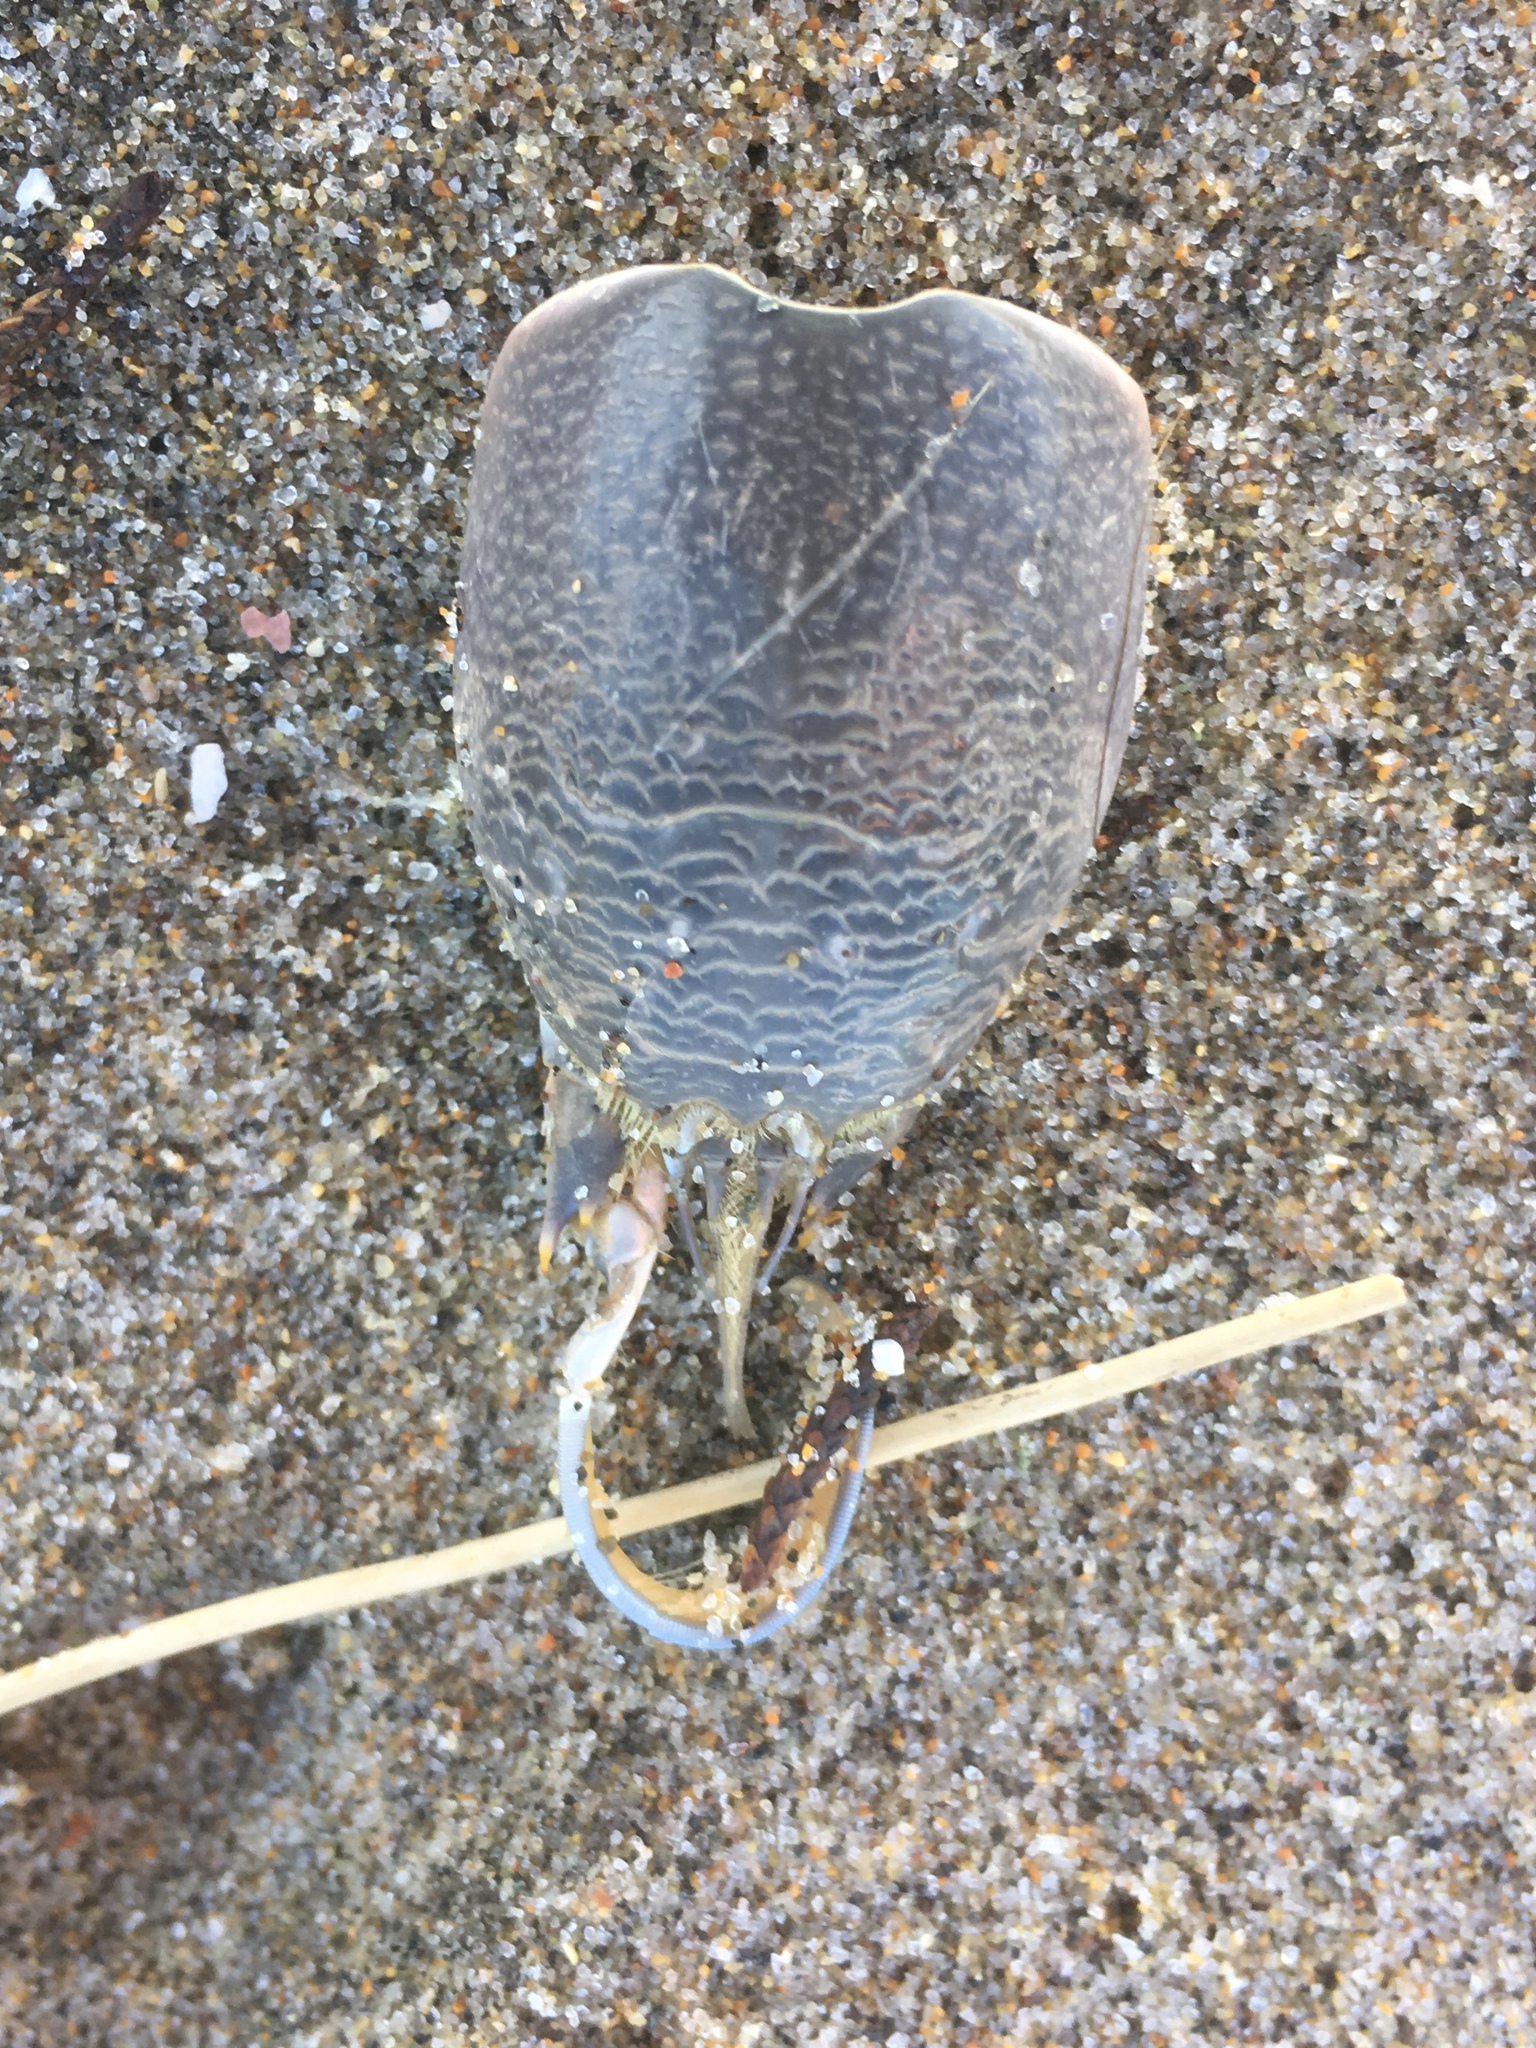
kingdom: Animalia
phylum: Arthropoda
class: Malacostraca
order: Decapoda
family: Hippidae
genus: Emerita
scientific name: Emerita analoga
